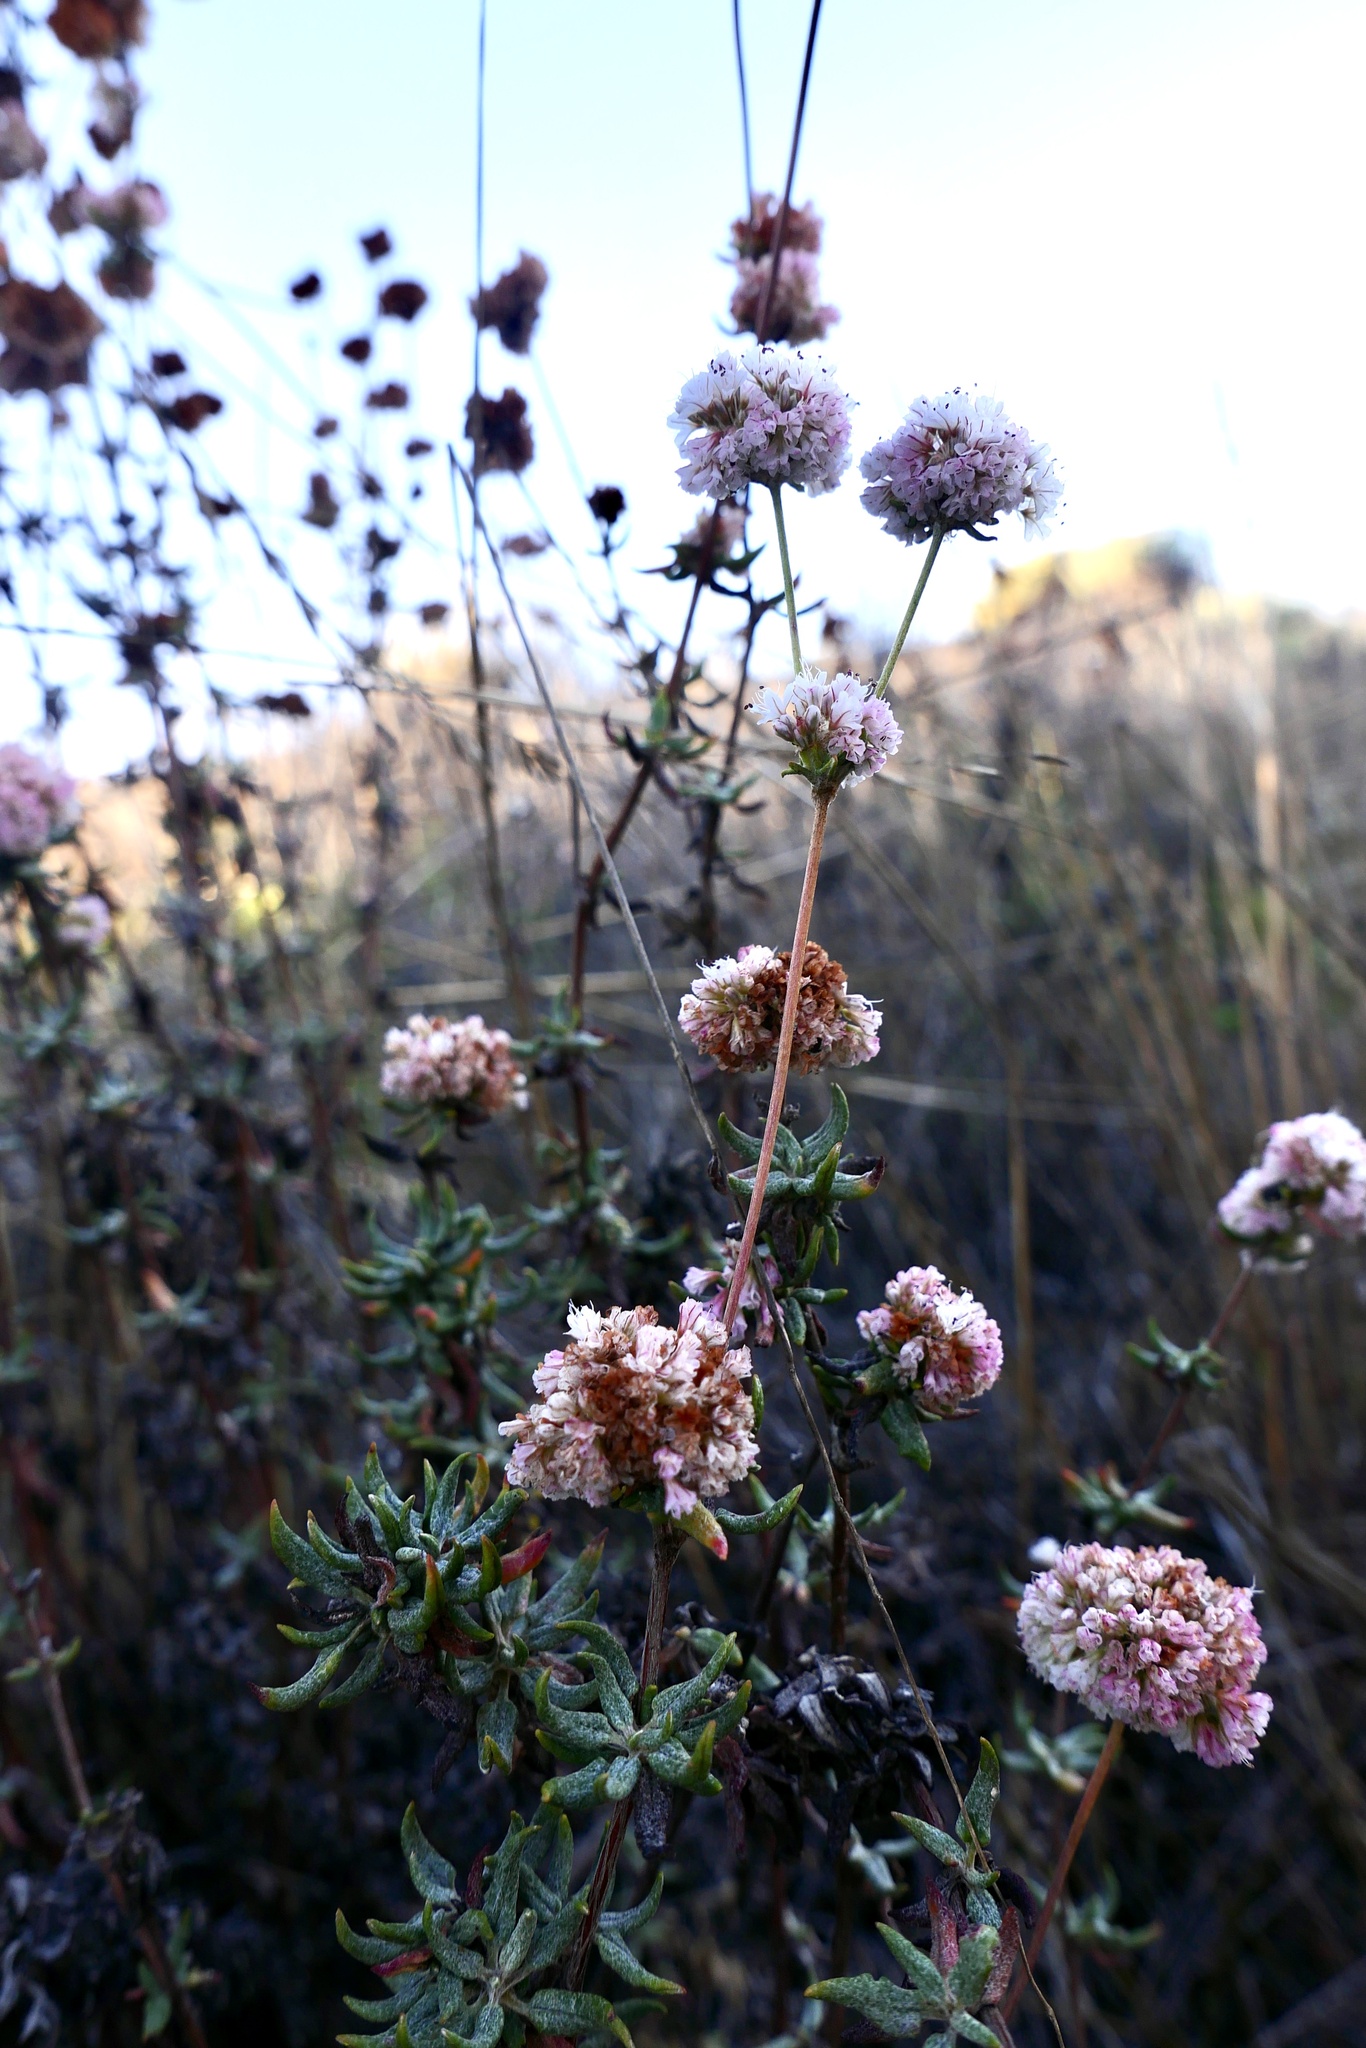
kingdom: Plantae
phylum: Tracheophyta
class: Magnoliopsida
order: Caryophyllales
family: Polygonaceae
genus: Eriogonum
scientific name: Eriogonum parvifolium
